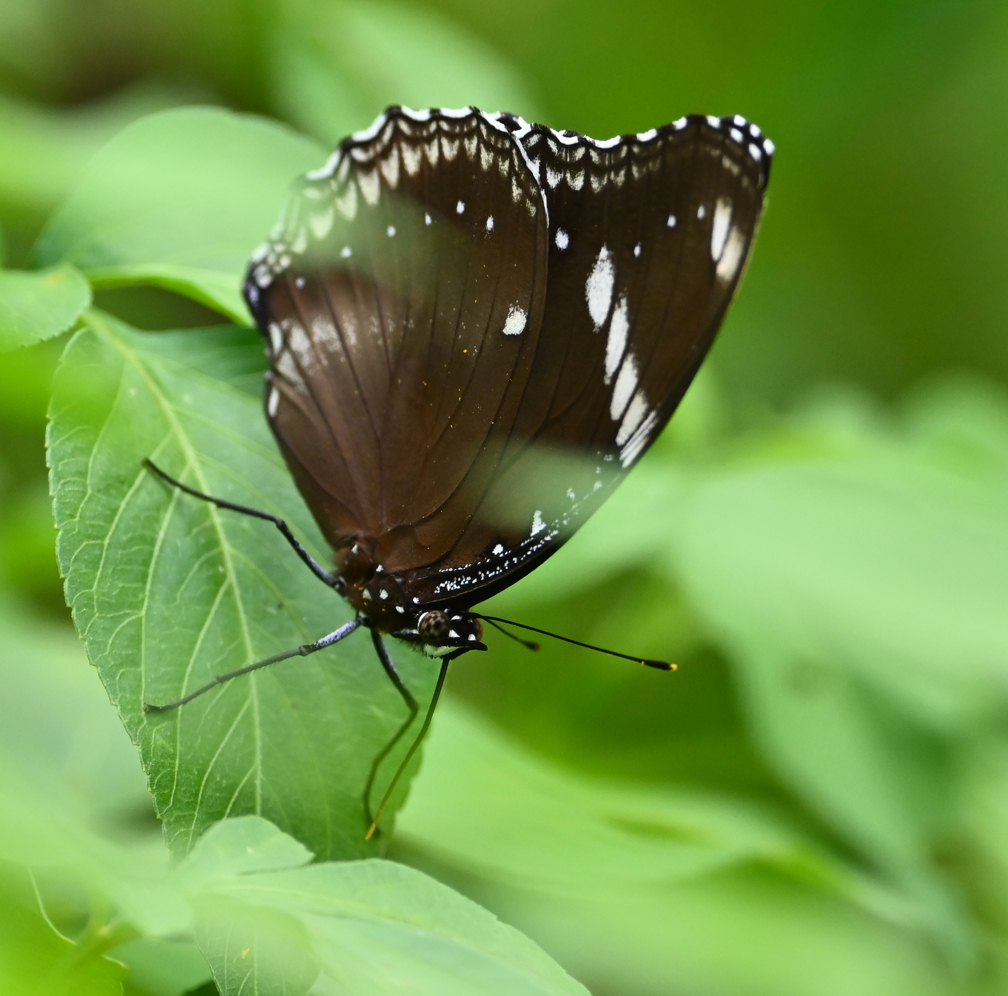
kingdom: Animalia
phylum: Arthropoda
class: Insecta
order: Lepidoptera
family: Nymphalidae
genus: Hypolimnas
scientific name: Hypolimnas bolina
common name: Great eggfly
